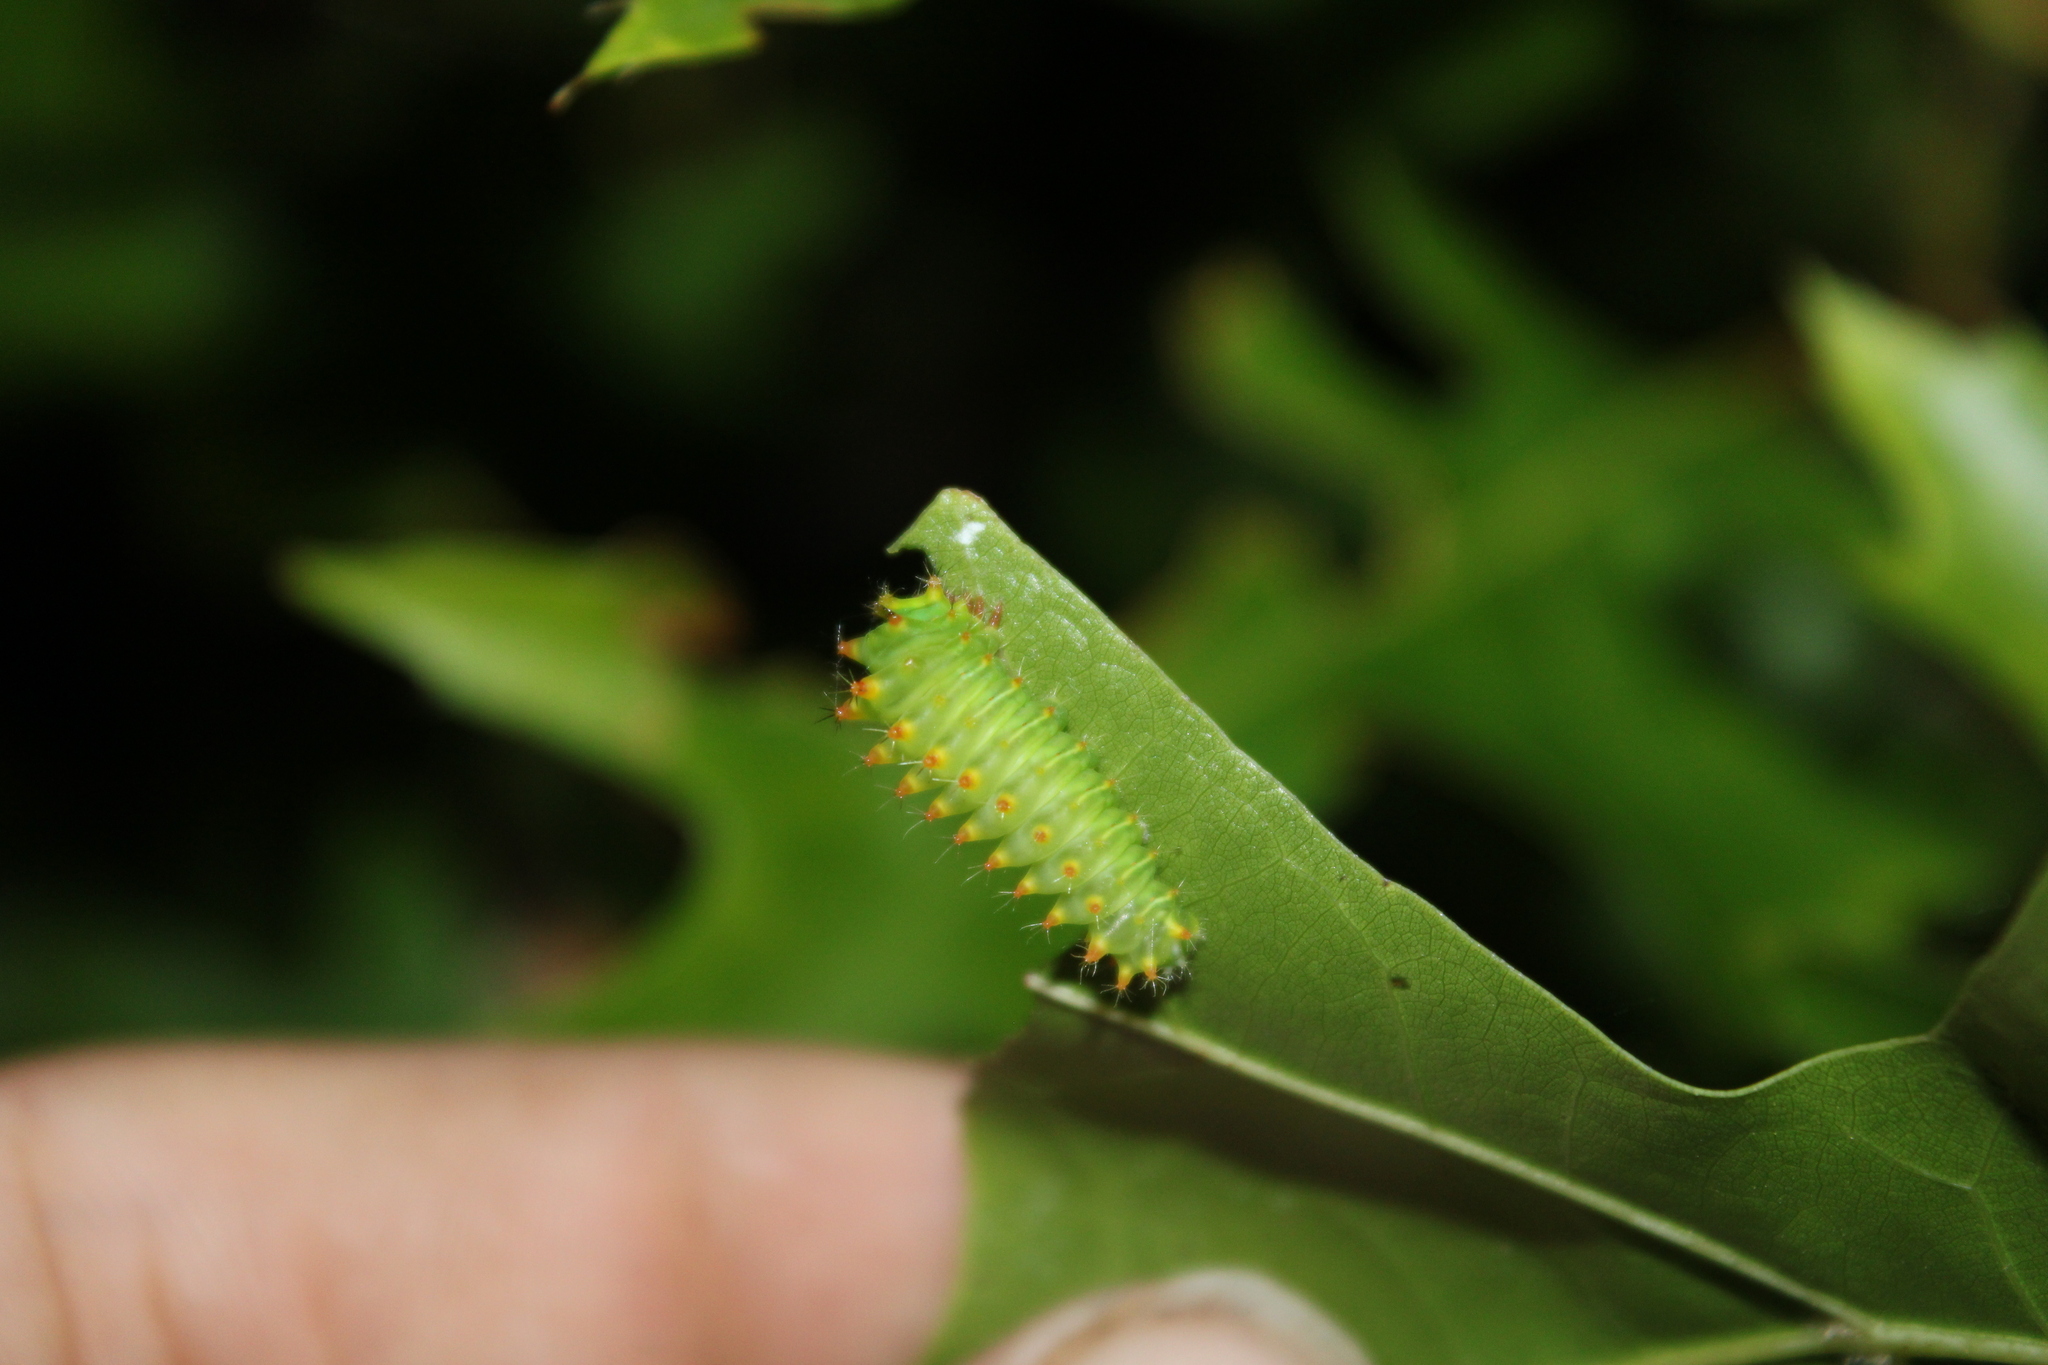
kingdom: Animalia
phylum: Arthropoda
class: Insecta
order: Lepidoptera
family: Saturniidae
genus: Antheraea
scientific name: Antheraea polyphemus
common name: Polyphemus moth
